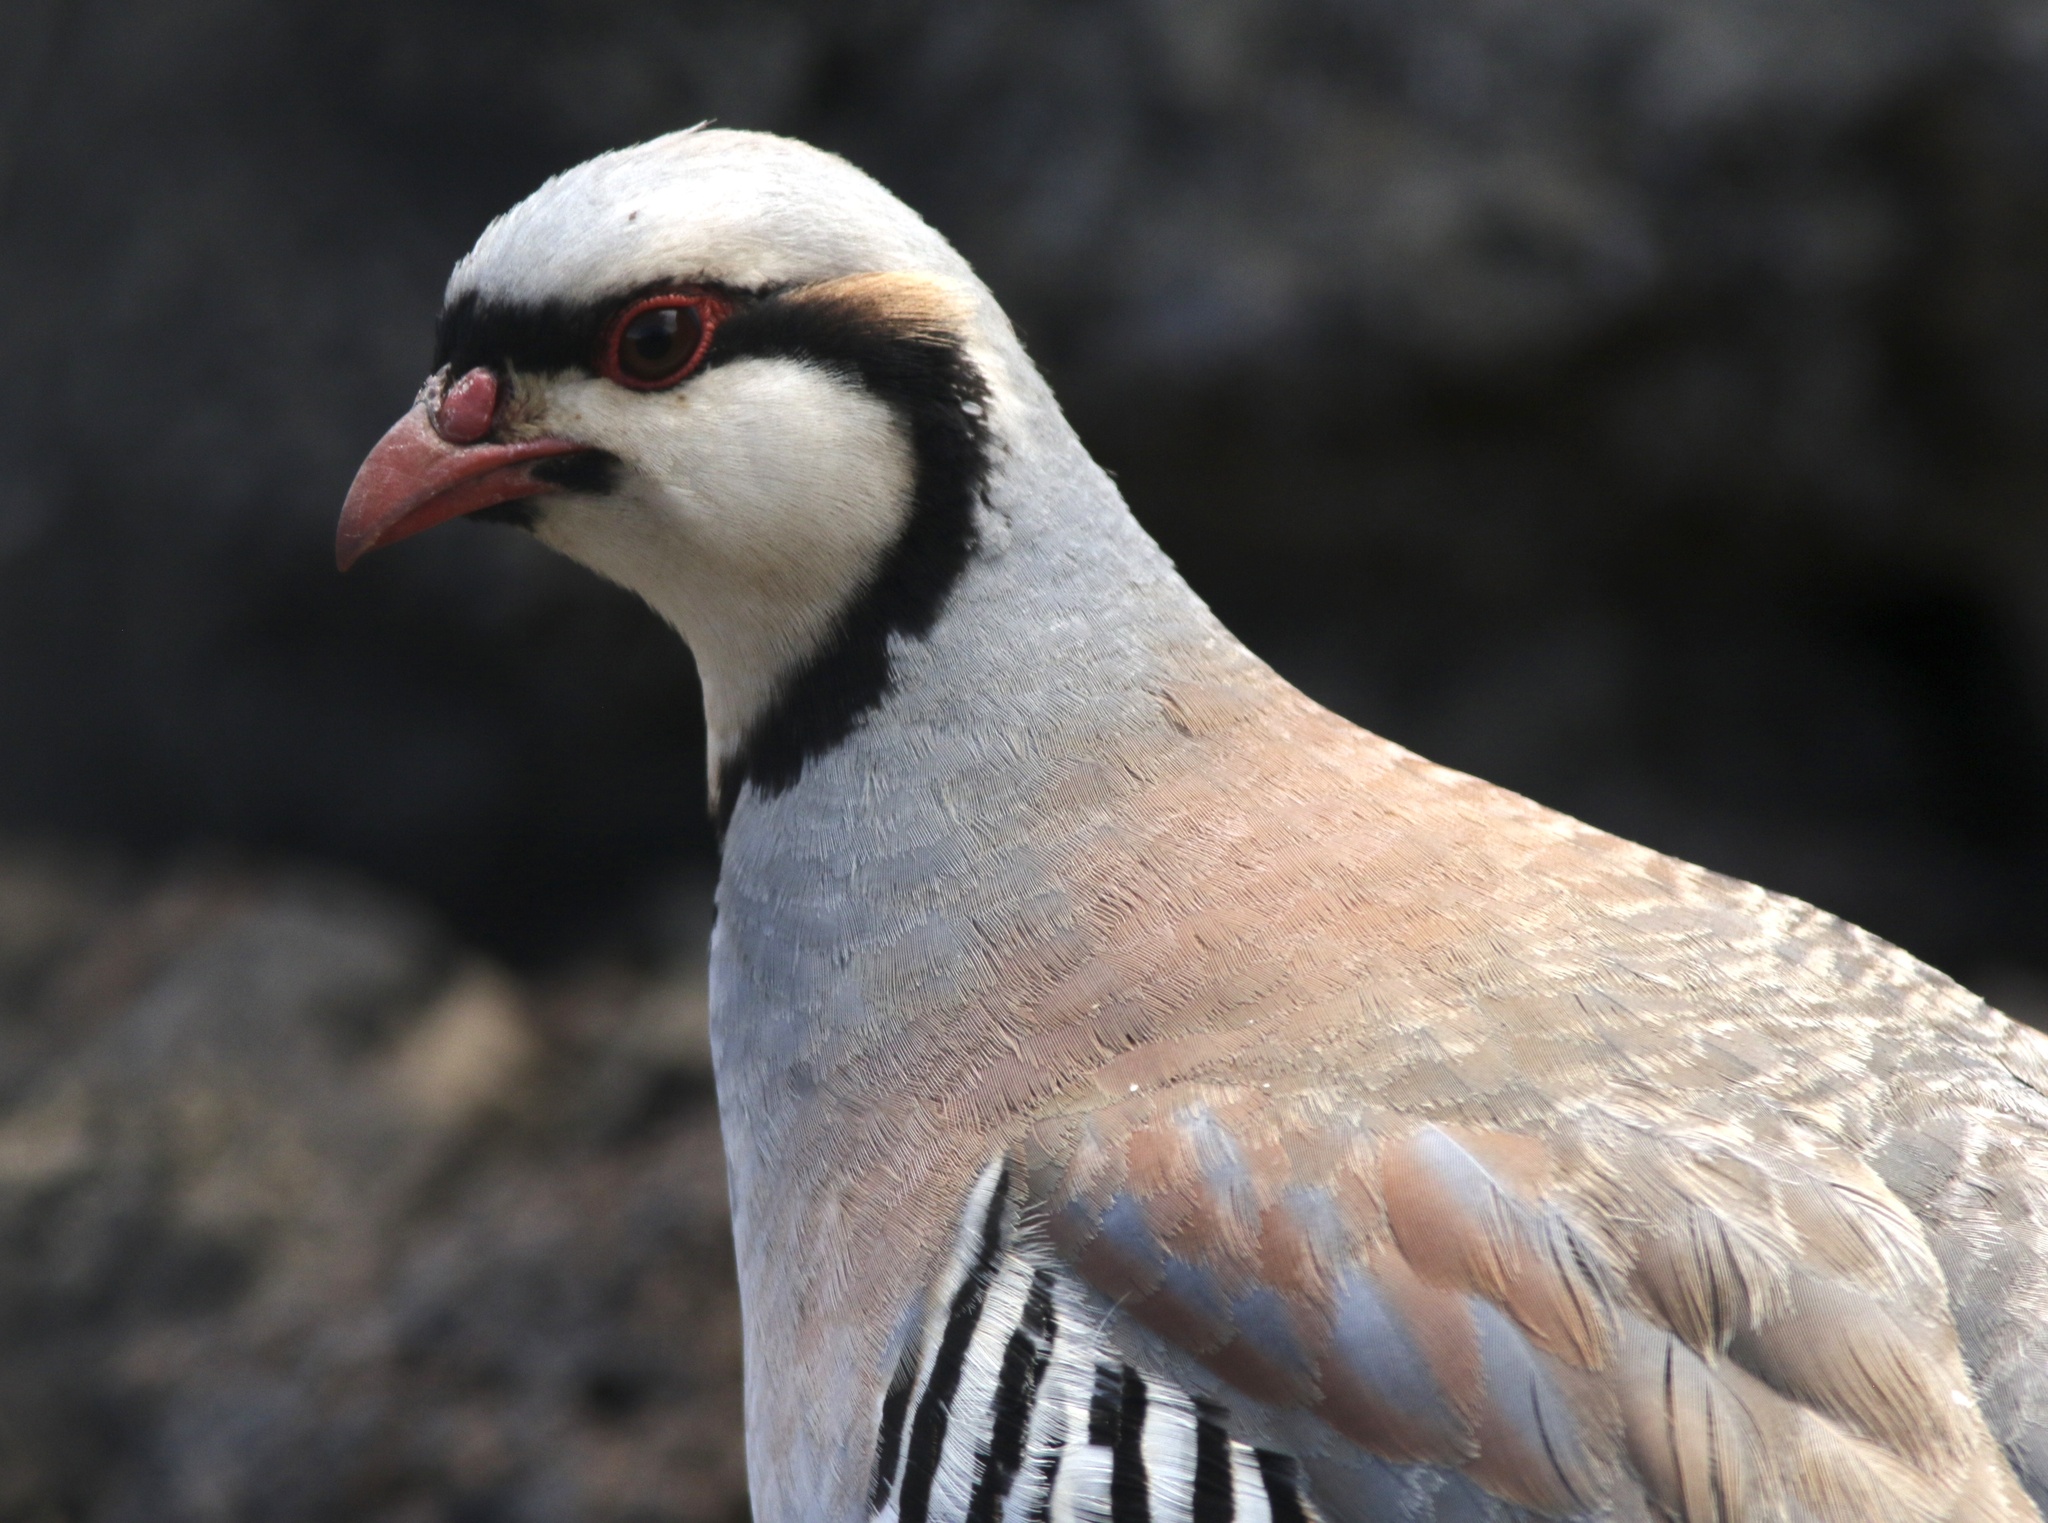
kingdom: Animalia
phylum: Chordata
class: Aves
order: Galliformes
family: Phasianidae
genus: Alectoris
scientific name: Alectoris chukar
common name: Chukar
